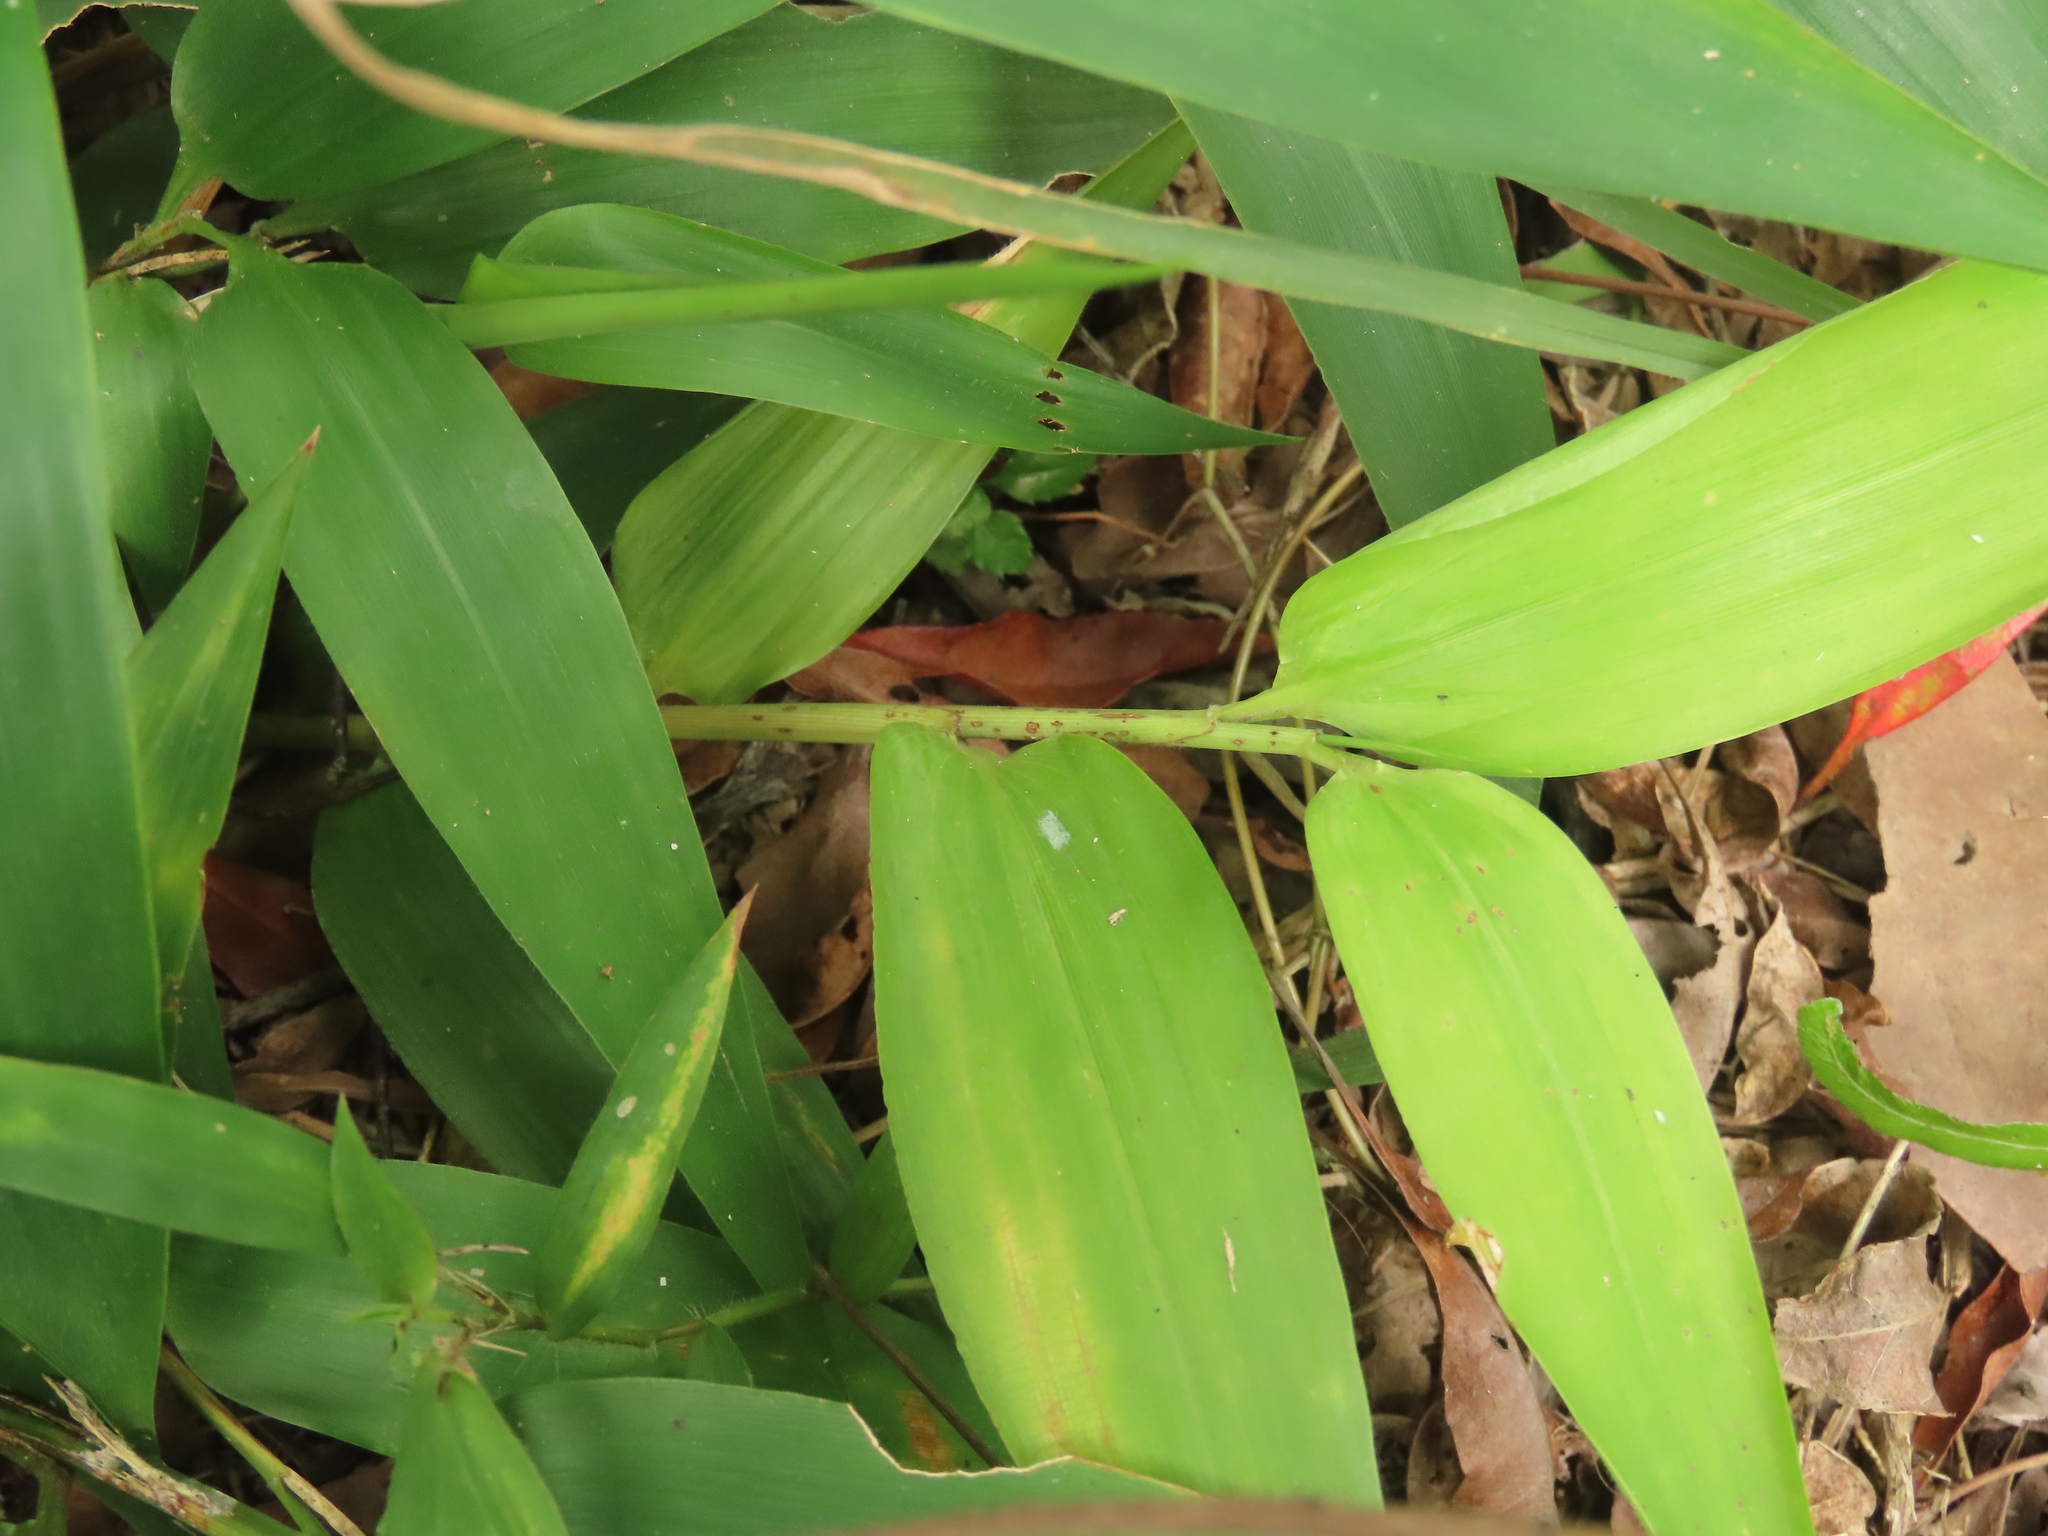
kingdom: Plantae
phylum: Tracheophyta
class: Liliopsida
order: Poales
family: Poaceae
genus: Lophatherum
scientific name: Lophatherum gracile
